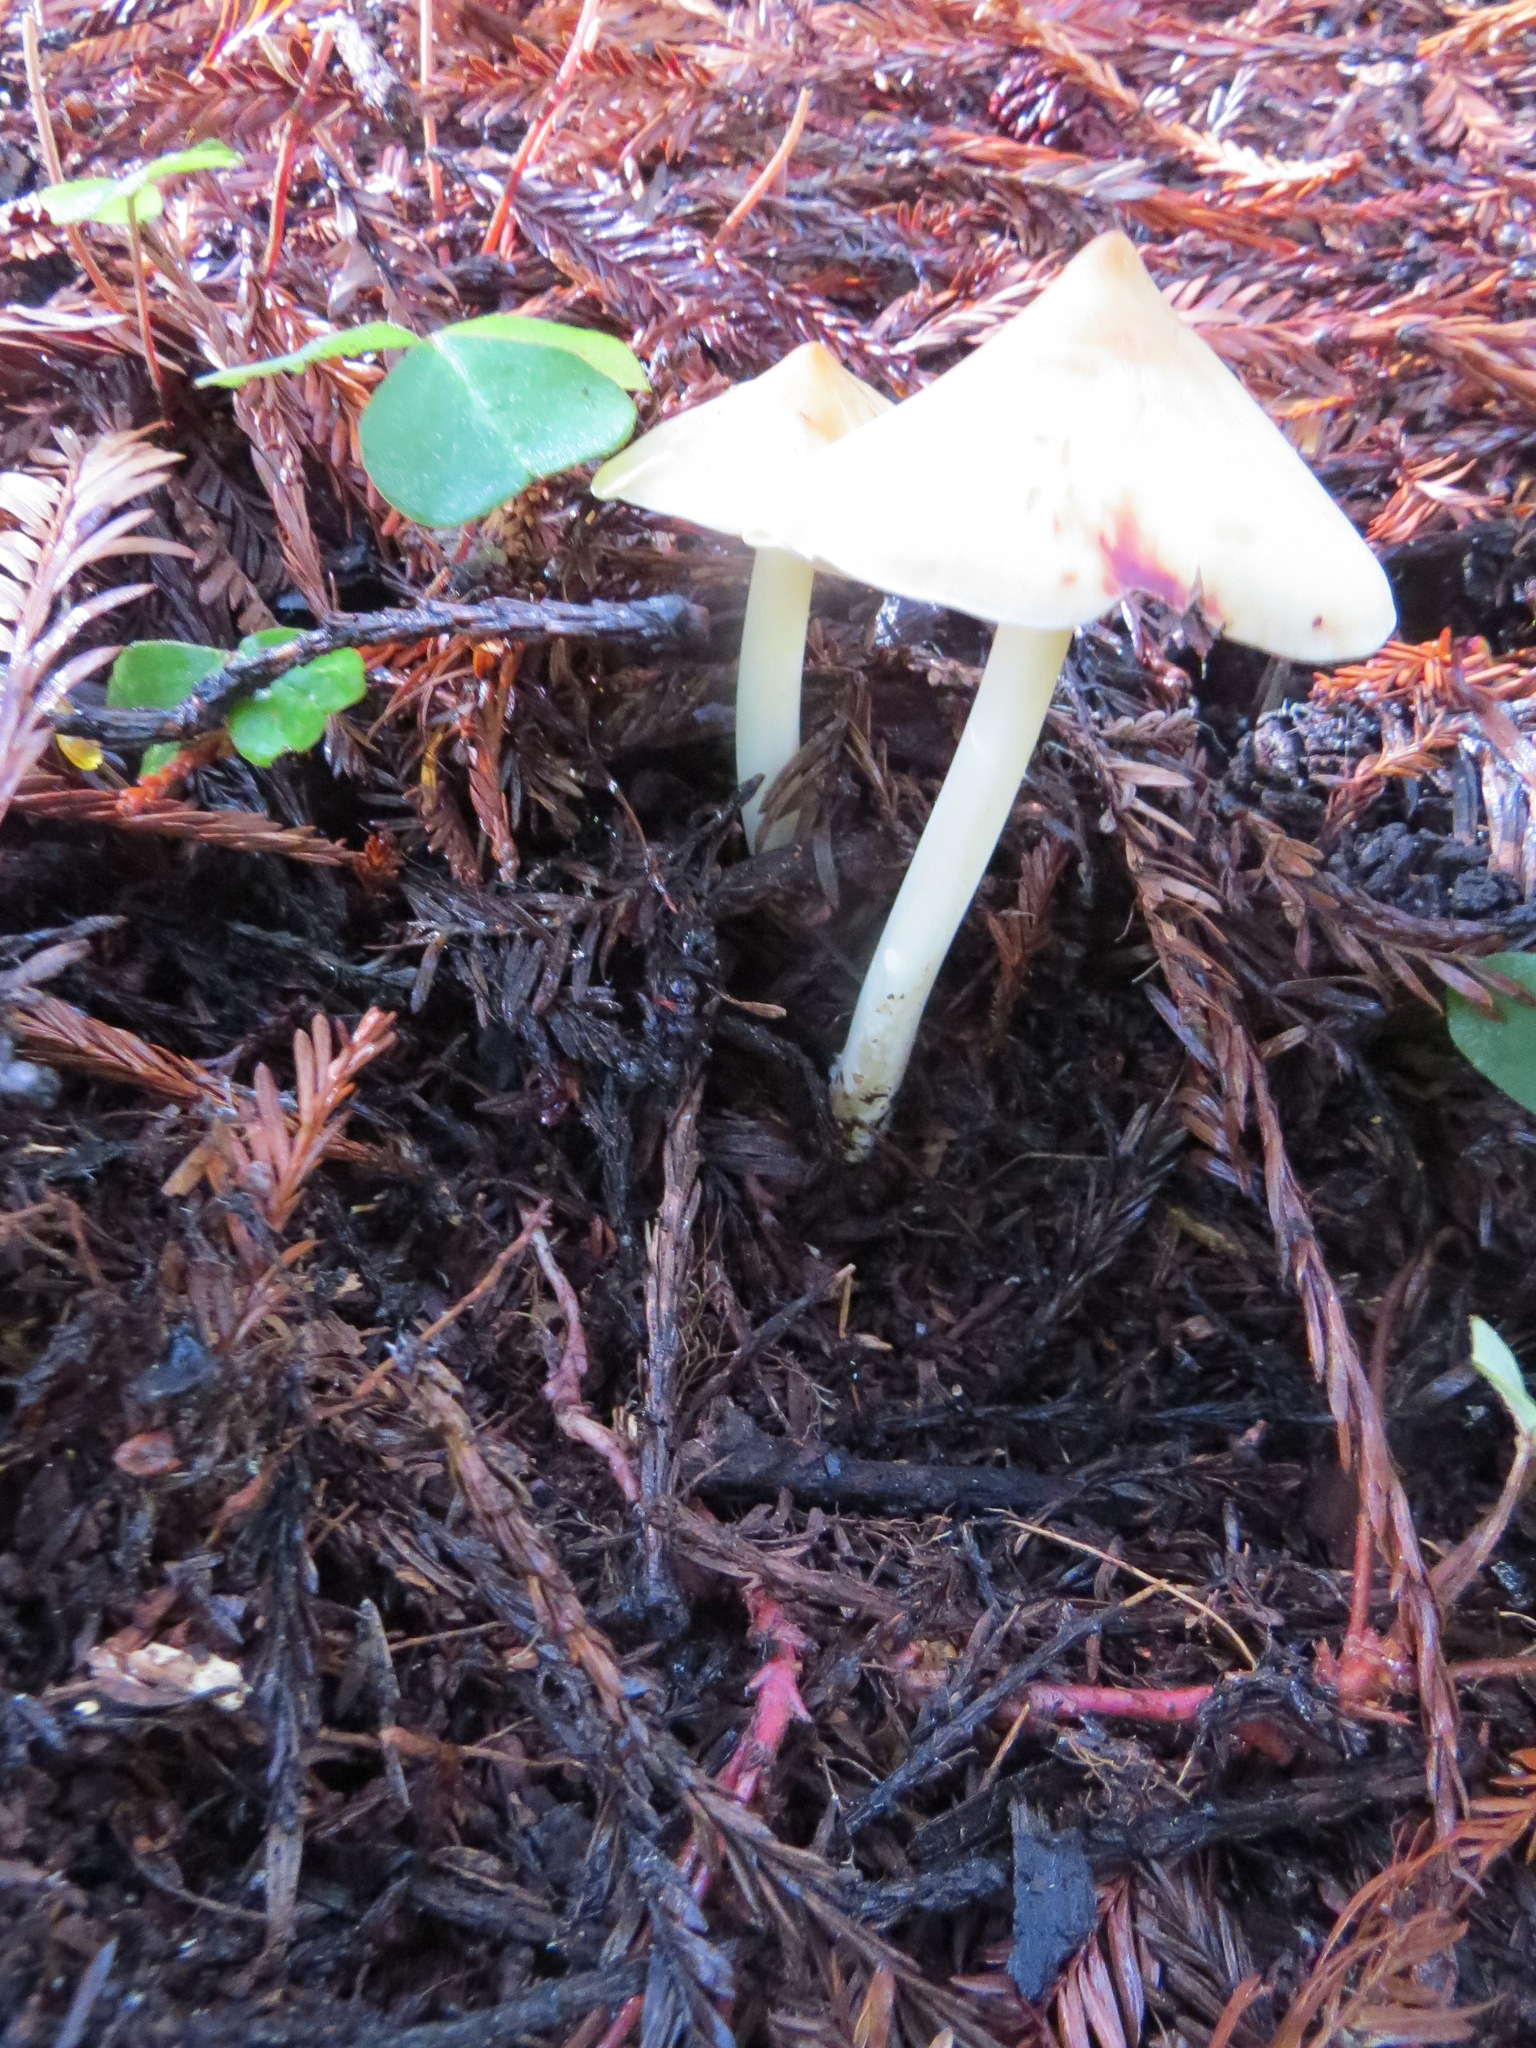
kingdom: Fungi
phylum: Basidiomycota
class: Agaricomycetes
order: Agaricales
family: Tricholomataceae
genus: Caulorhiza
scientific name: Caulorhiza umbonata
